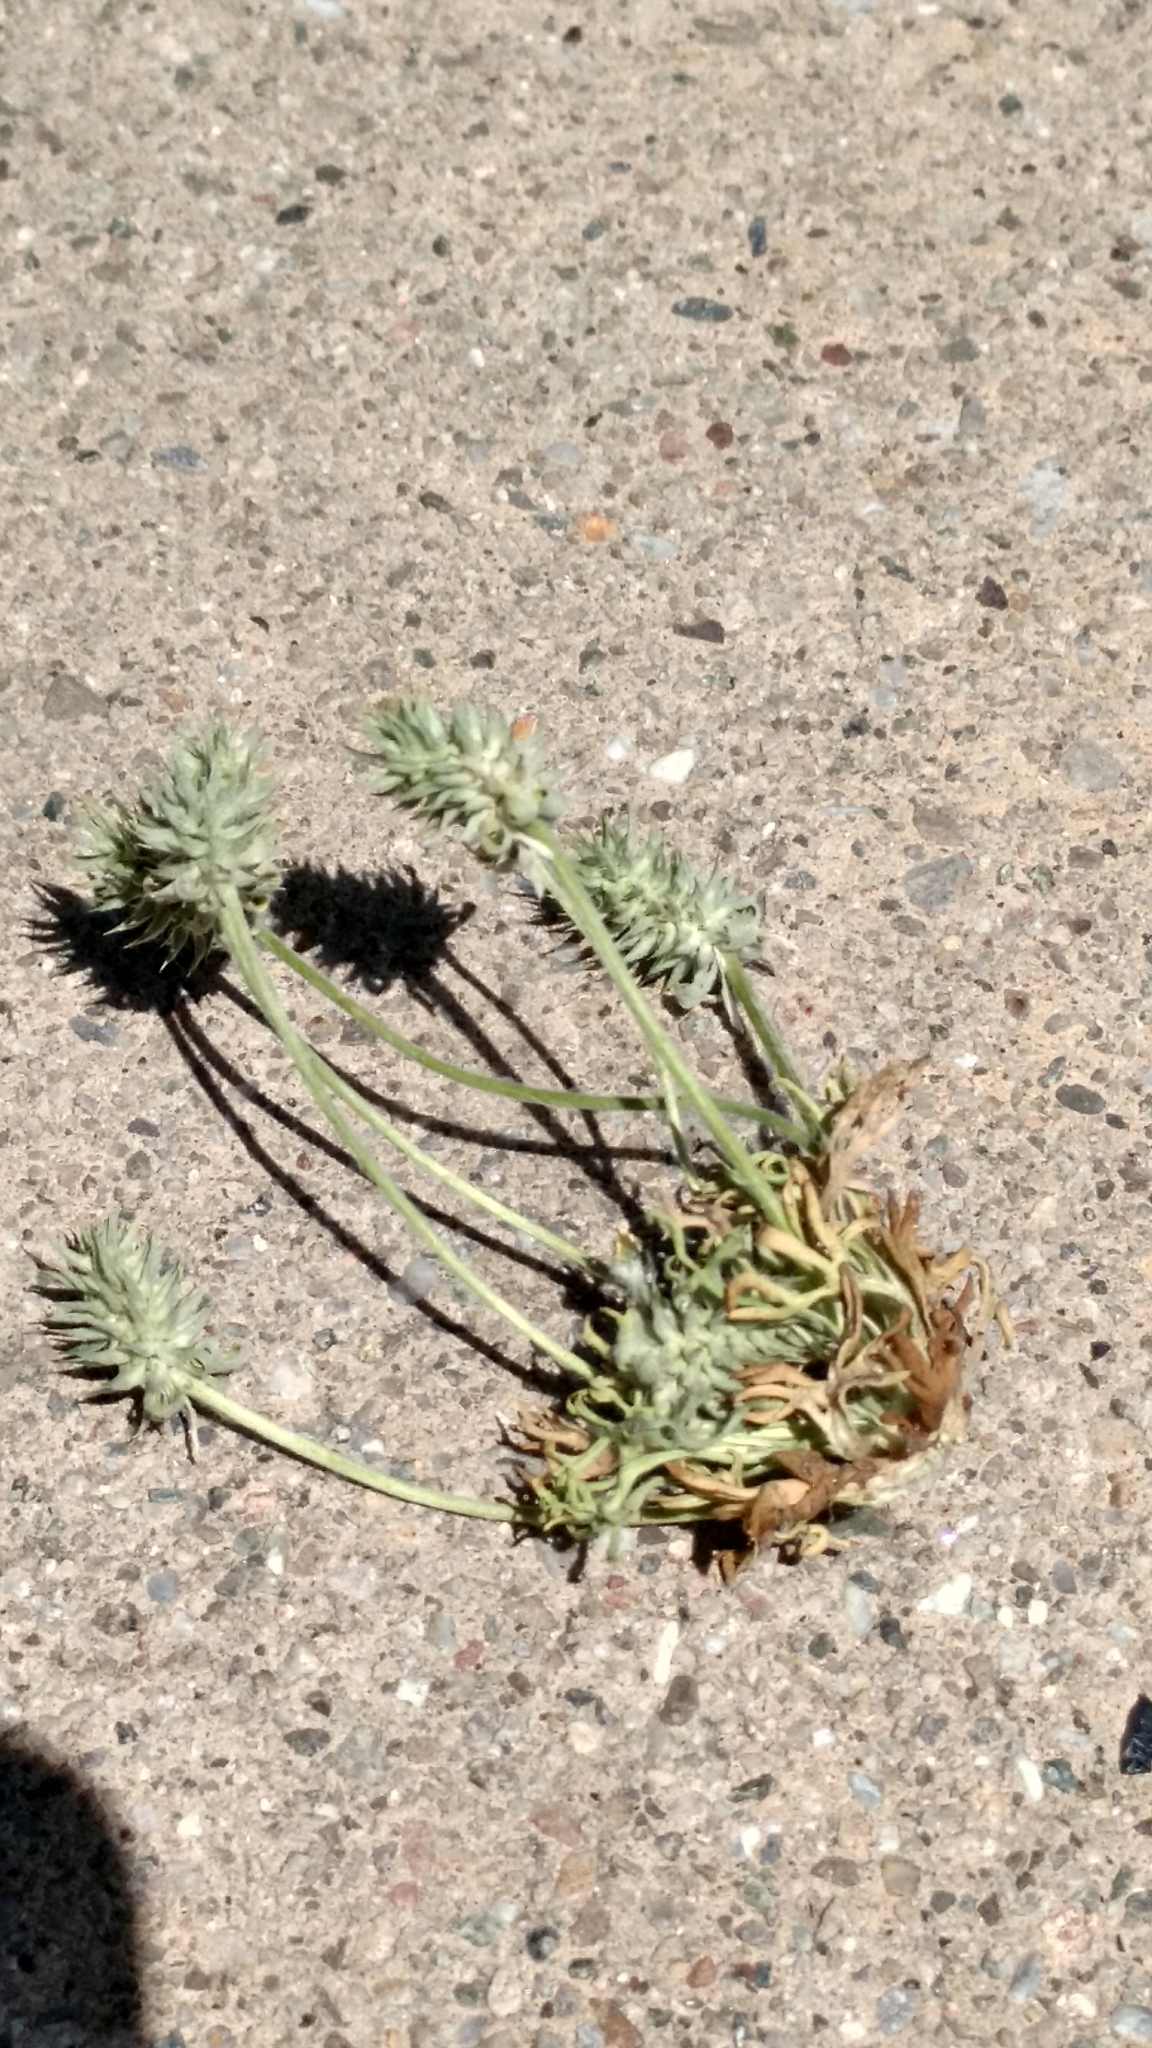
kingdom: Plantae
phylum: Tracheophyta
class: Magnoliopsida
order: Ranunculales
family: Ranunculaceae
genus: Ceratocephala
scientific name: Ceratocephala orthoceras
